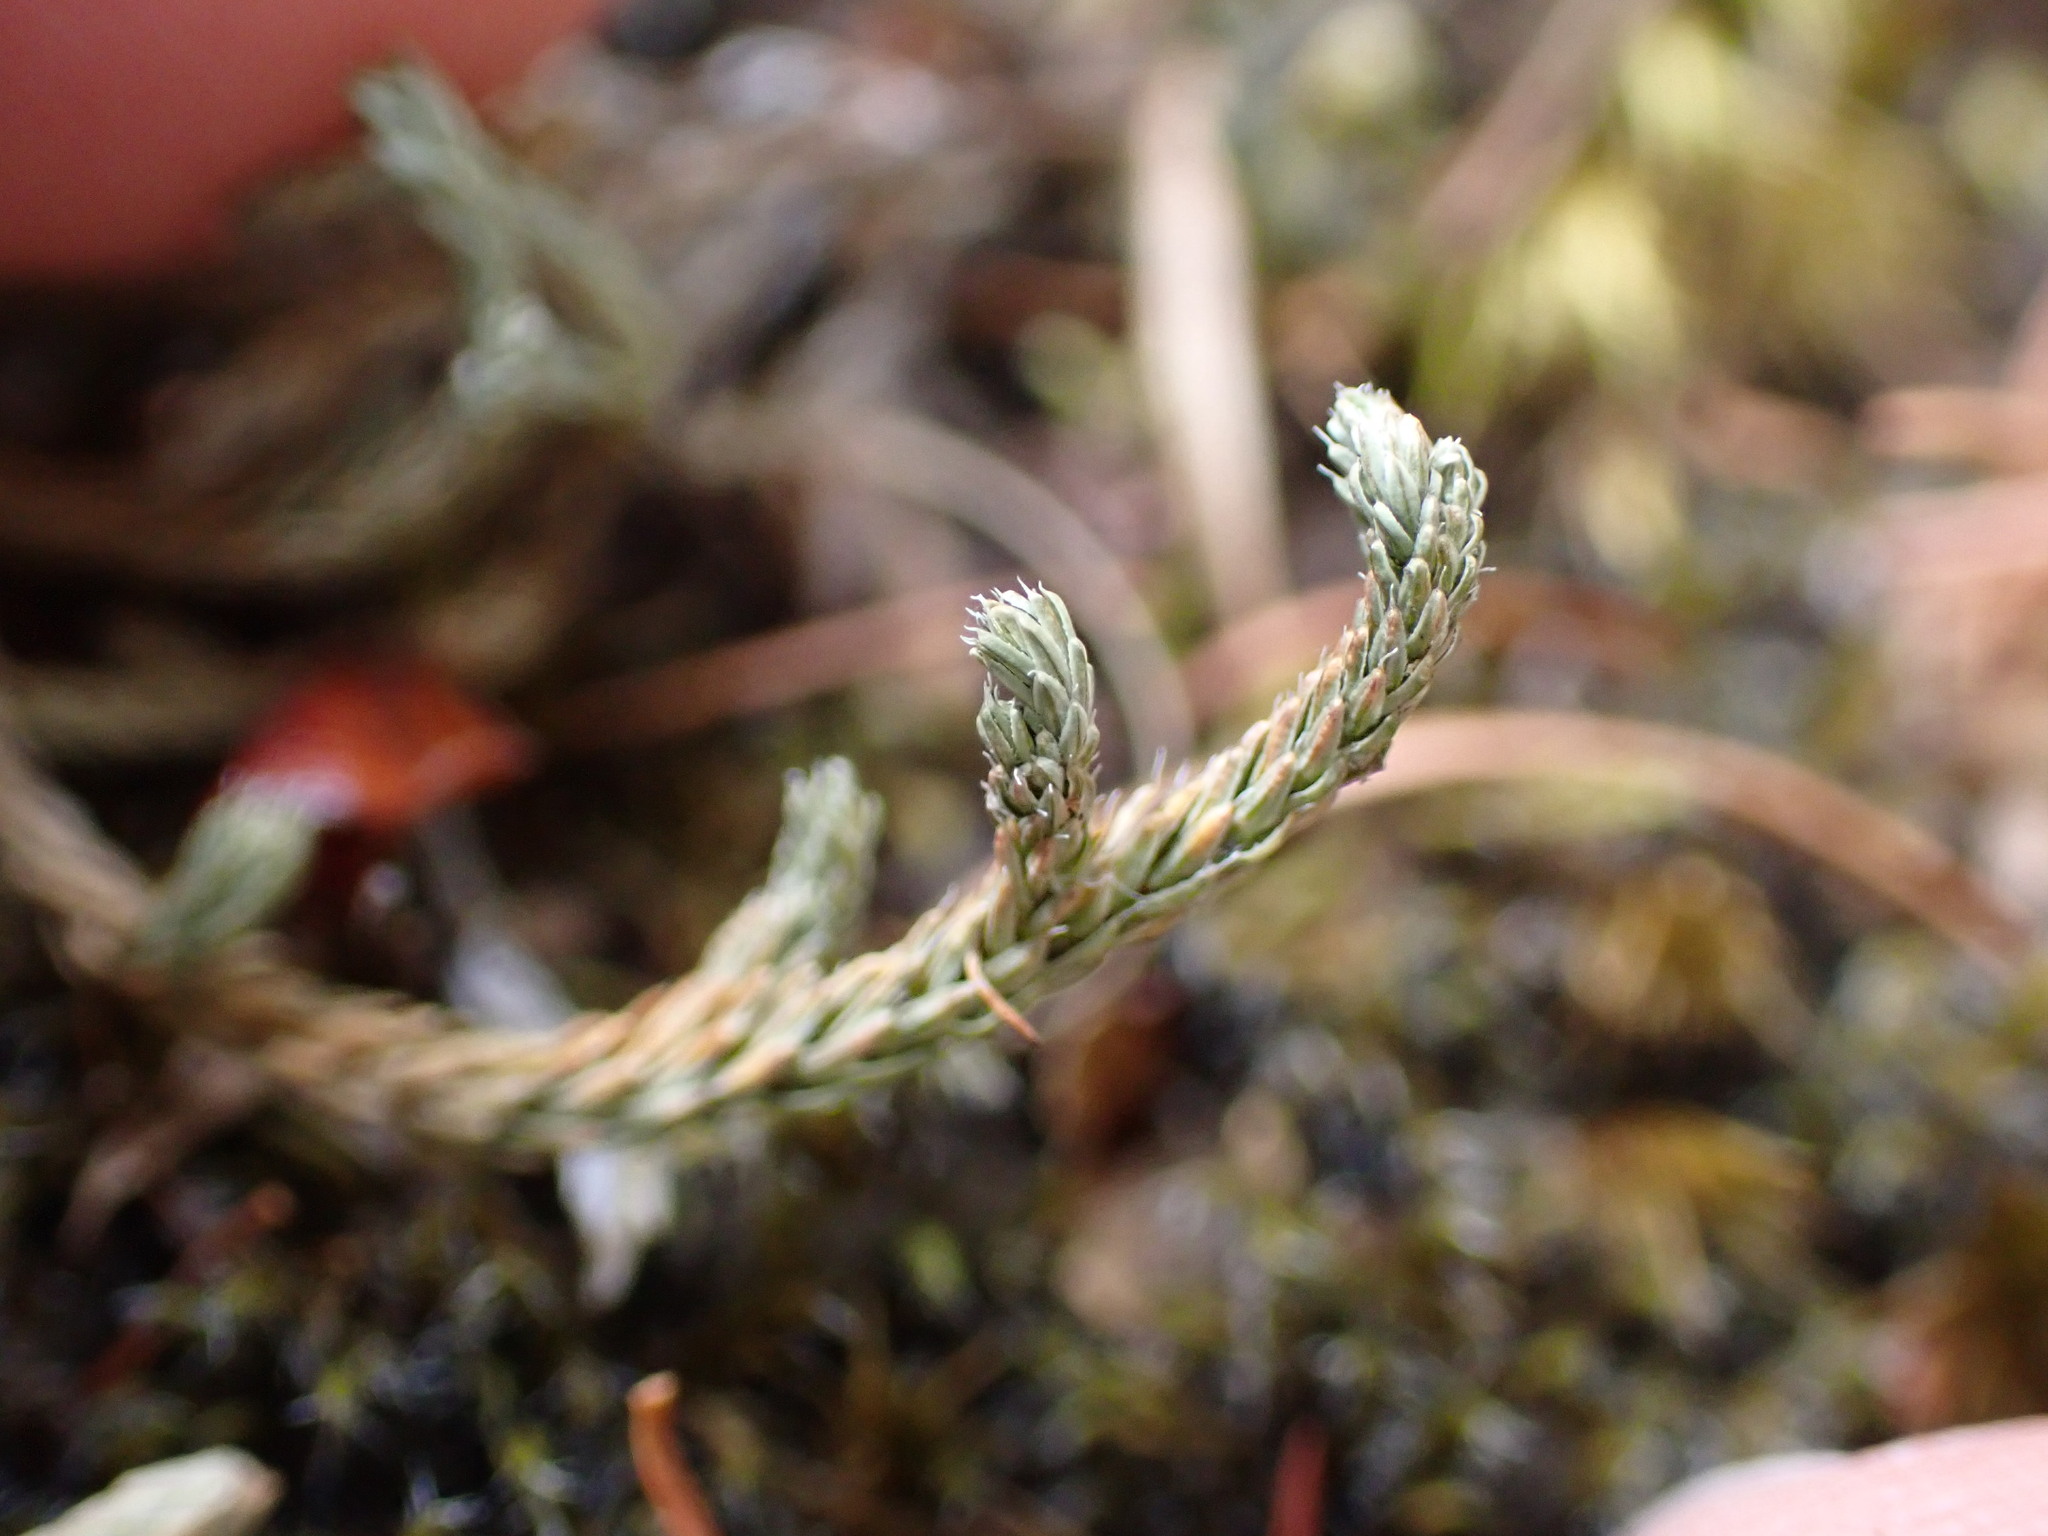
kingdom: Plantae
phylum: Tracheophyta
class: Lycopodiopsida
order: Selaginellales
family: Selaginellaceae
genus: Selaginella
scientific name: Selaginella wallacei
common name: Wallace's selaginella
